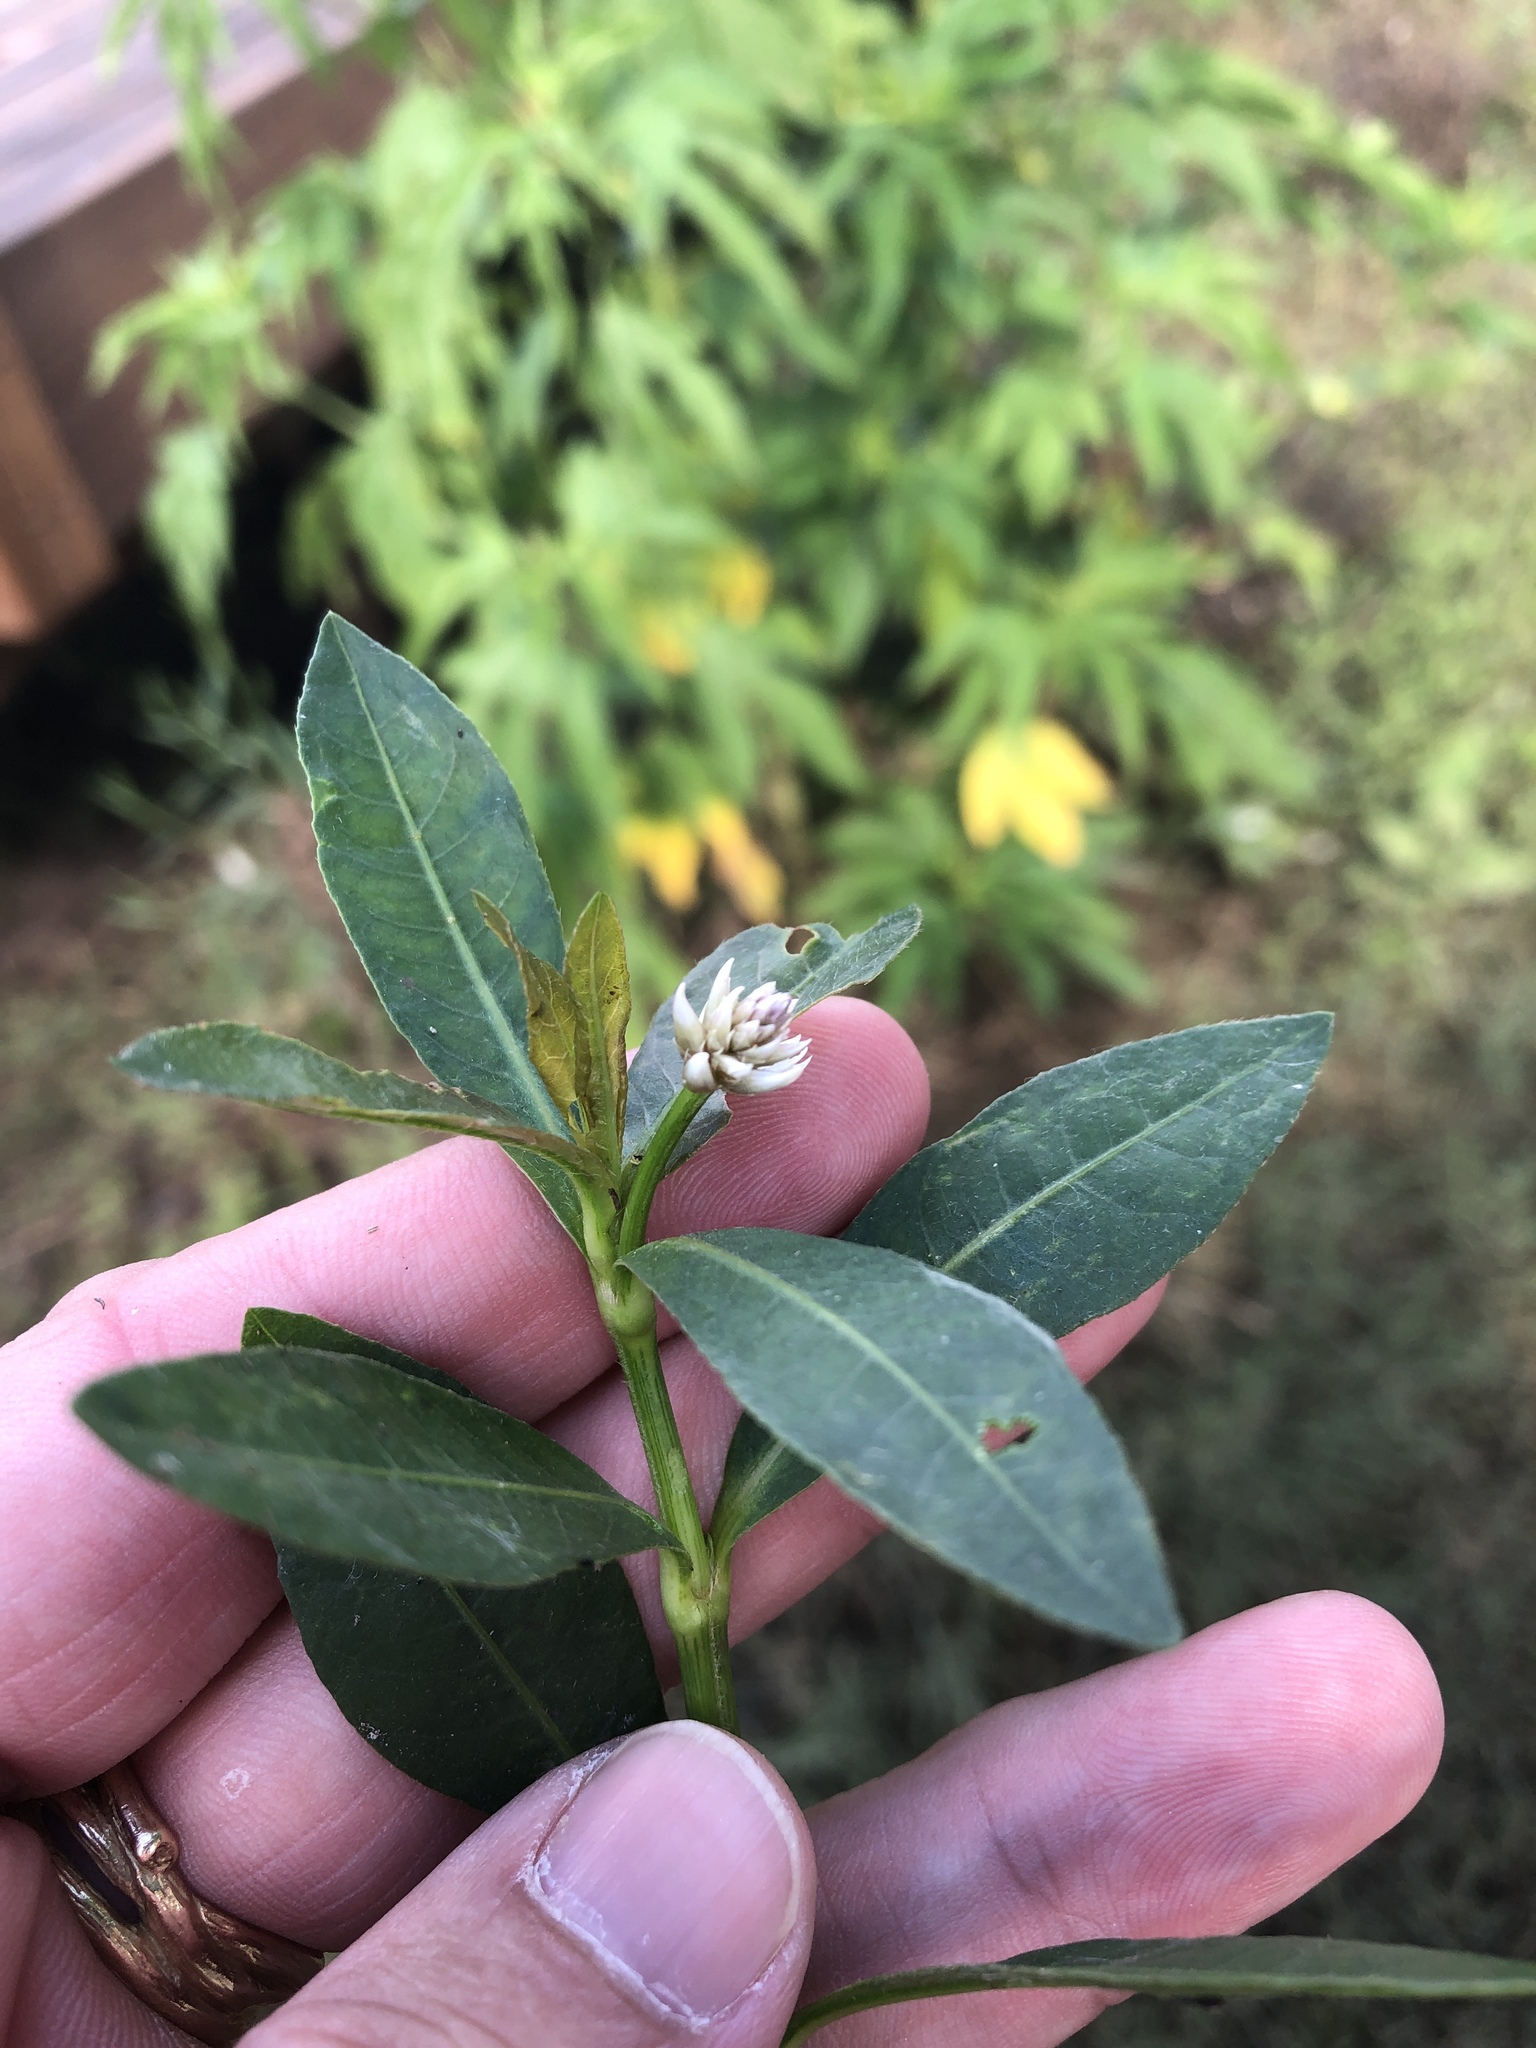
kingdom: Plantae
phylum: Tracheophyta
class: Magnoliopsida
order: Caryophyllales
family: Amaranthaceae
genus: Alternanthera
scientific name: Alternanthera philoxeroides
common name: Alligatorweed
